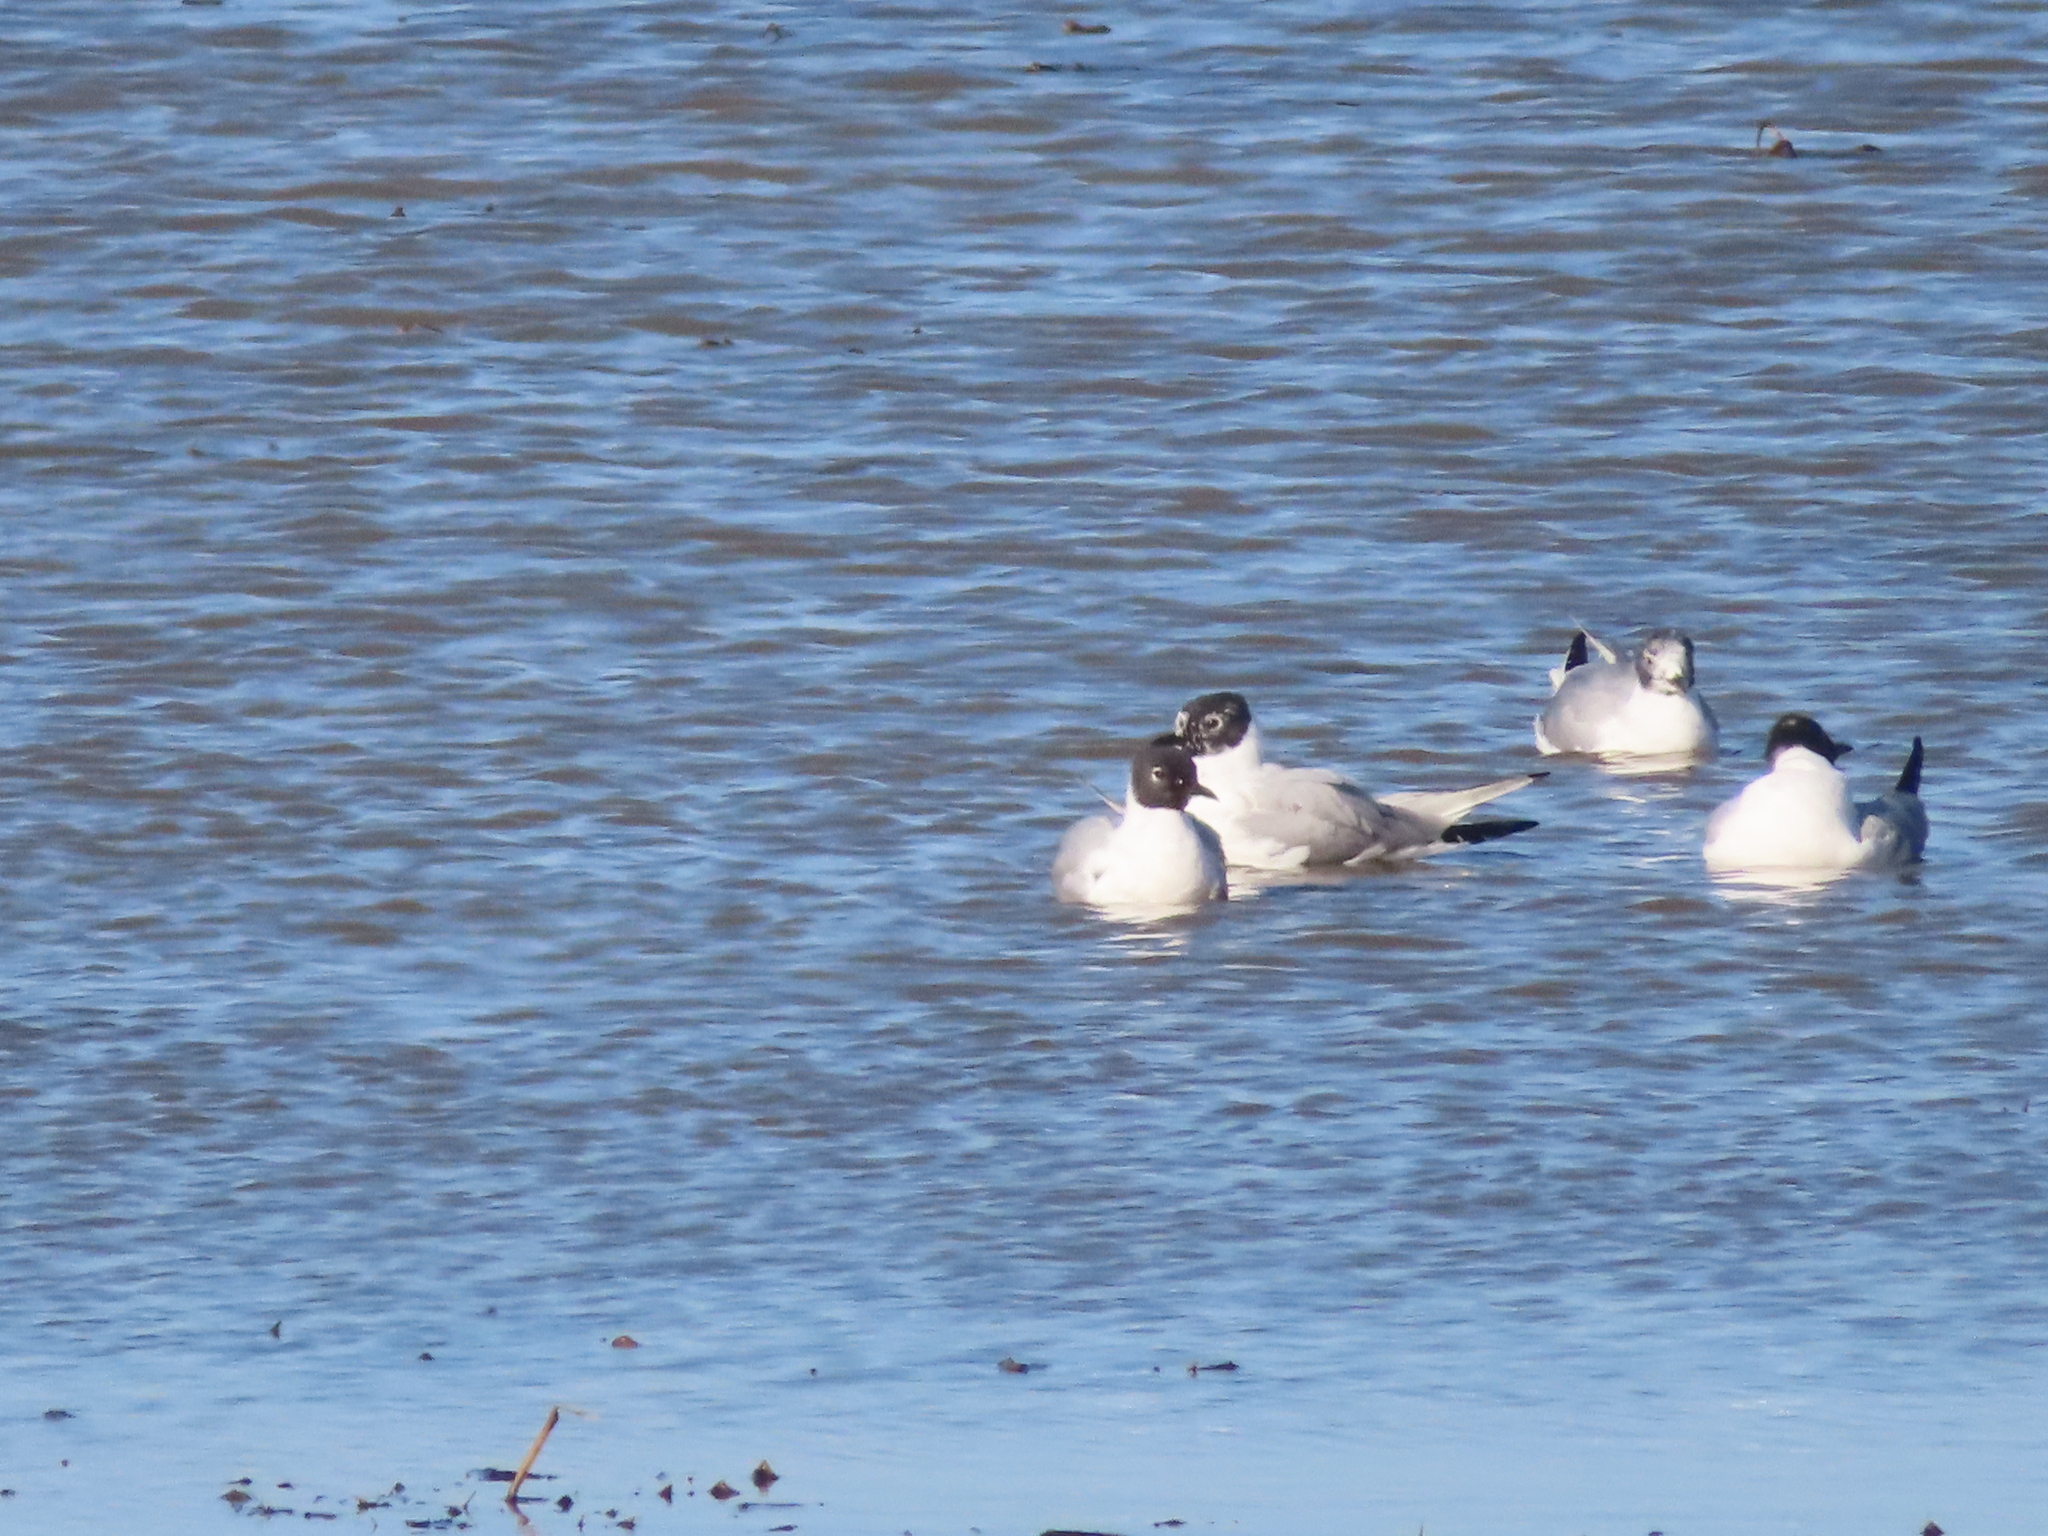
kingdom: Animalia
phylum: Chordata
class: Aves
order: Charadriiformes
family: Laridae
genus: Chroicocephalus
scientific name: Chroicocephalus philadelphia
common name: Bonaparte's gull
